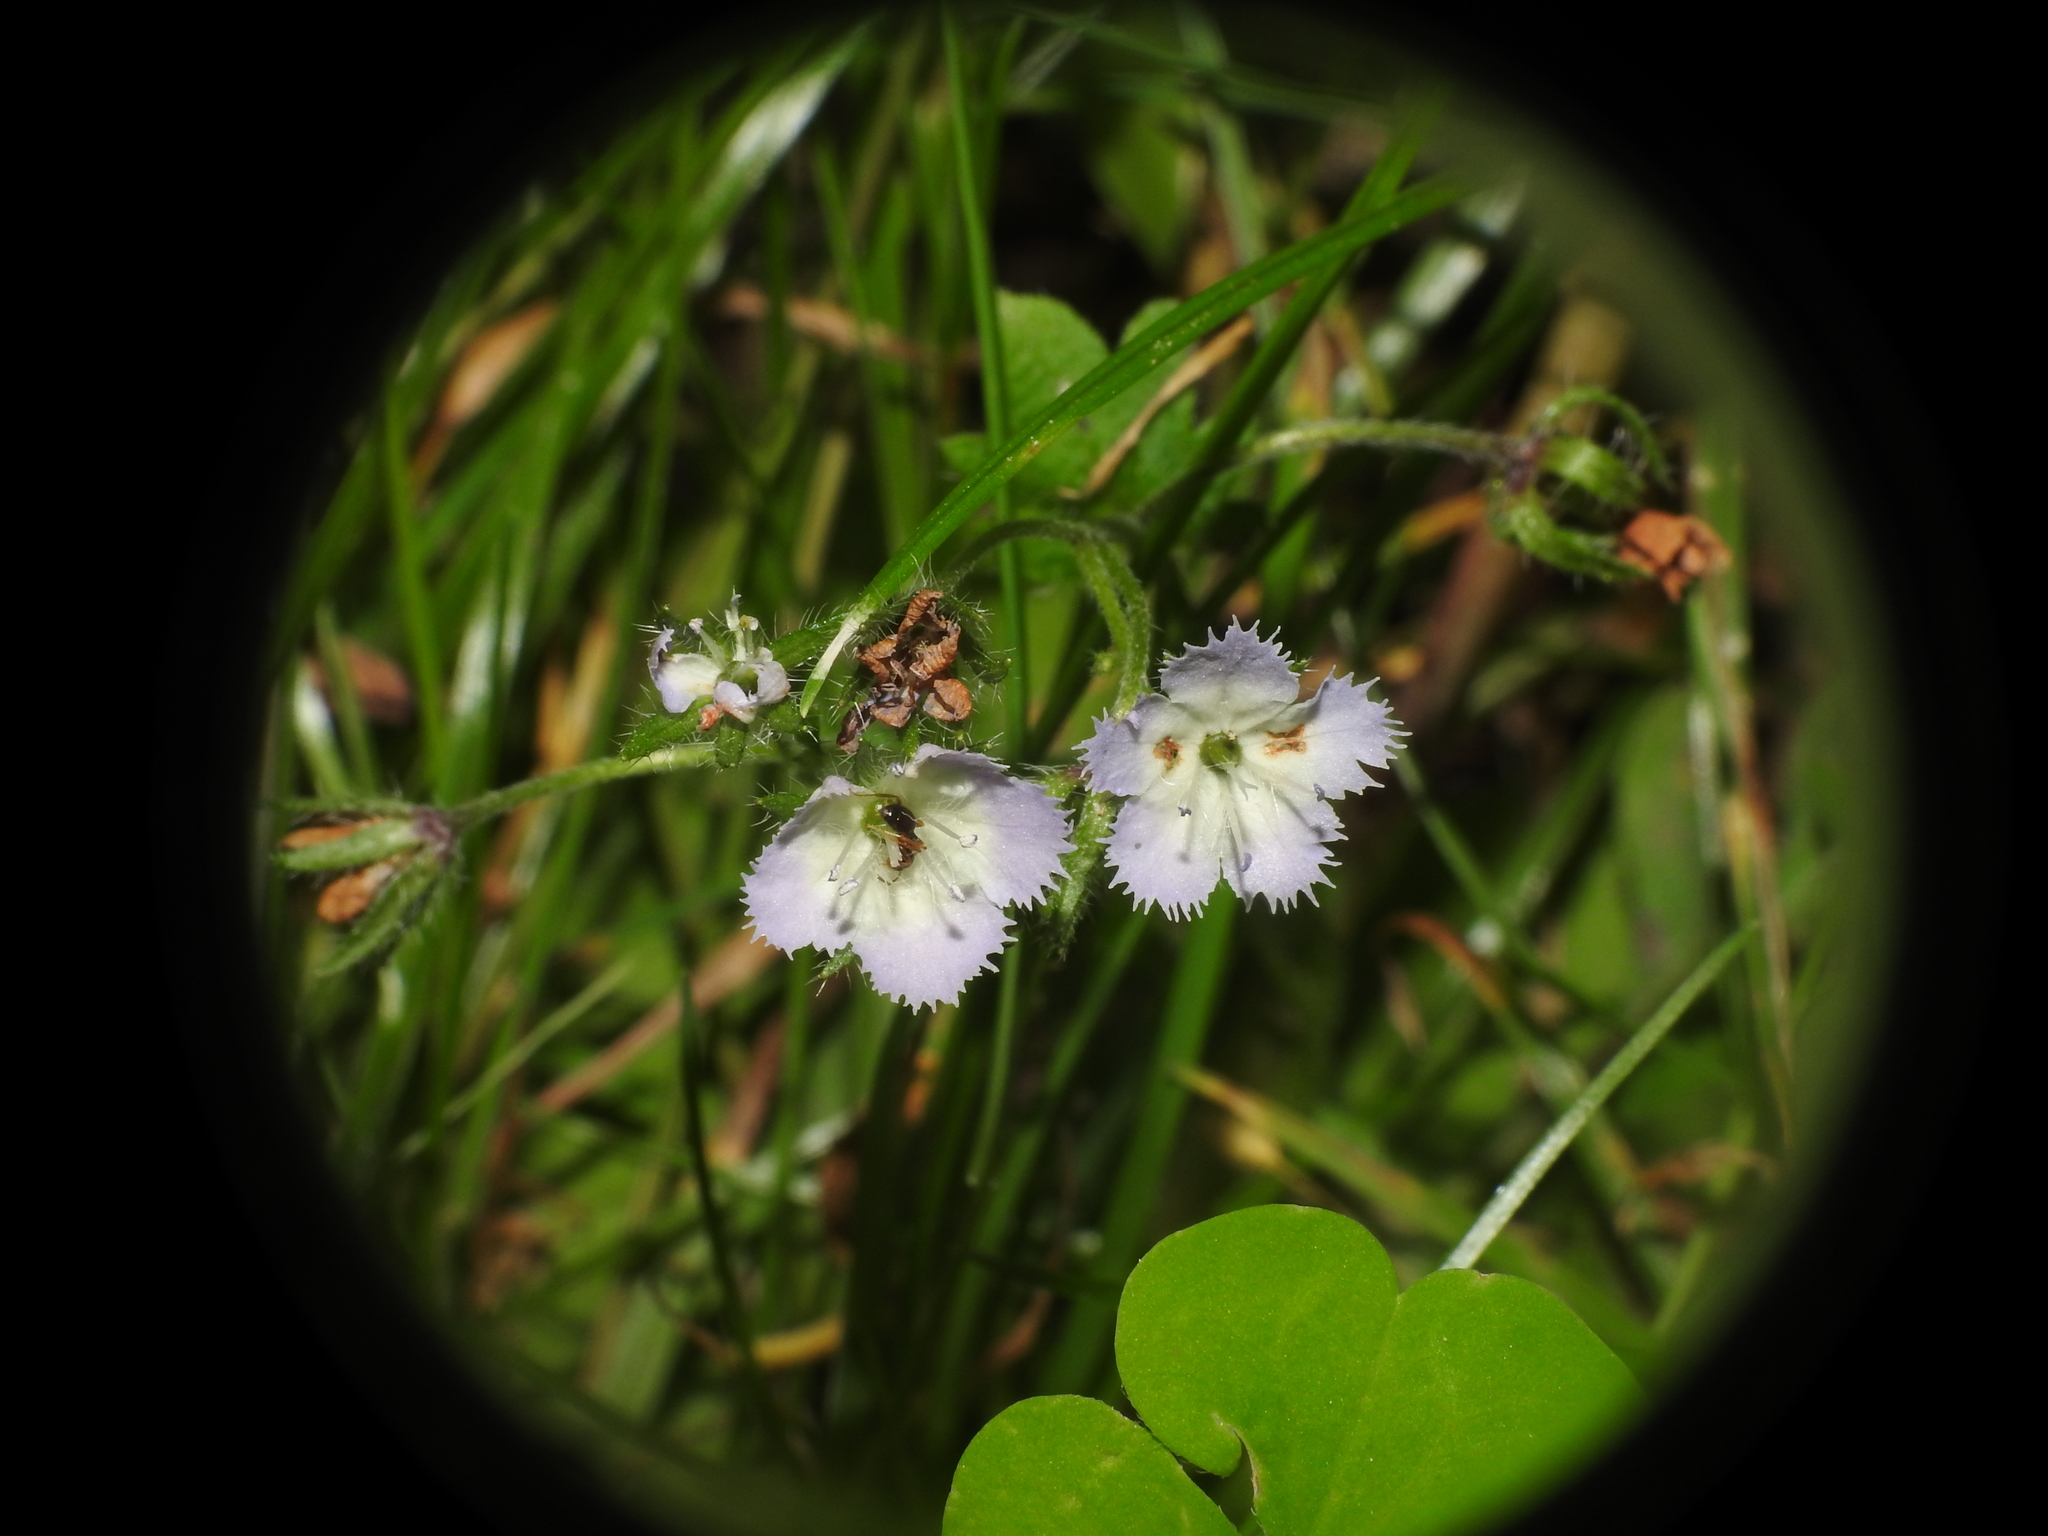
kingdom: Plantae
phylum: Tracheophyta
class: Magnoliopsida
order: Boraginales
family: Hydrophyllaceae
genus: Phacelia
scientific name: Phacelia purshii
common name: Miami-mist
